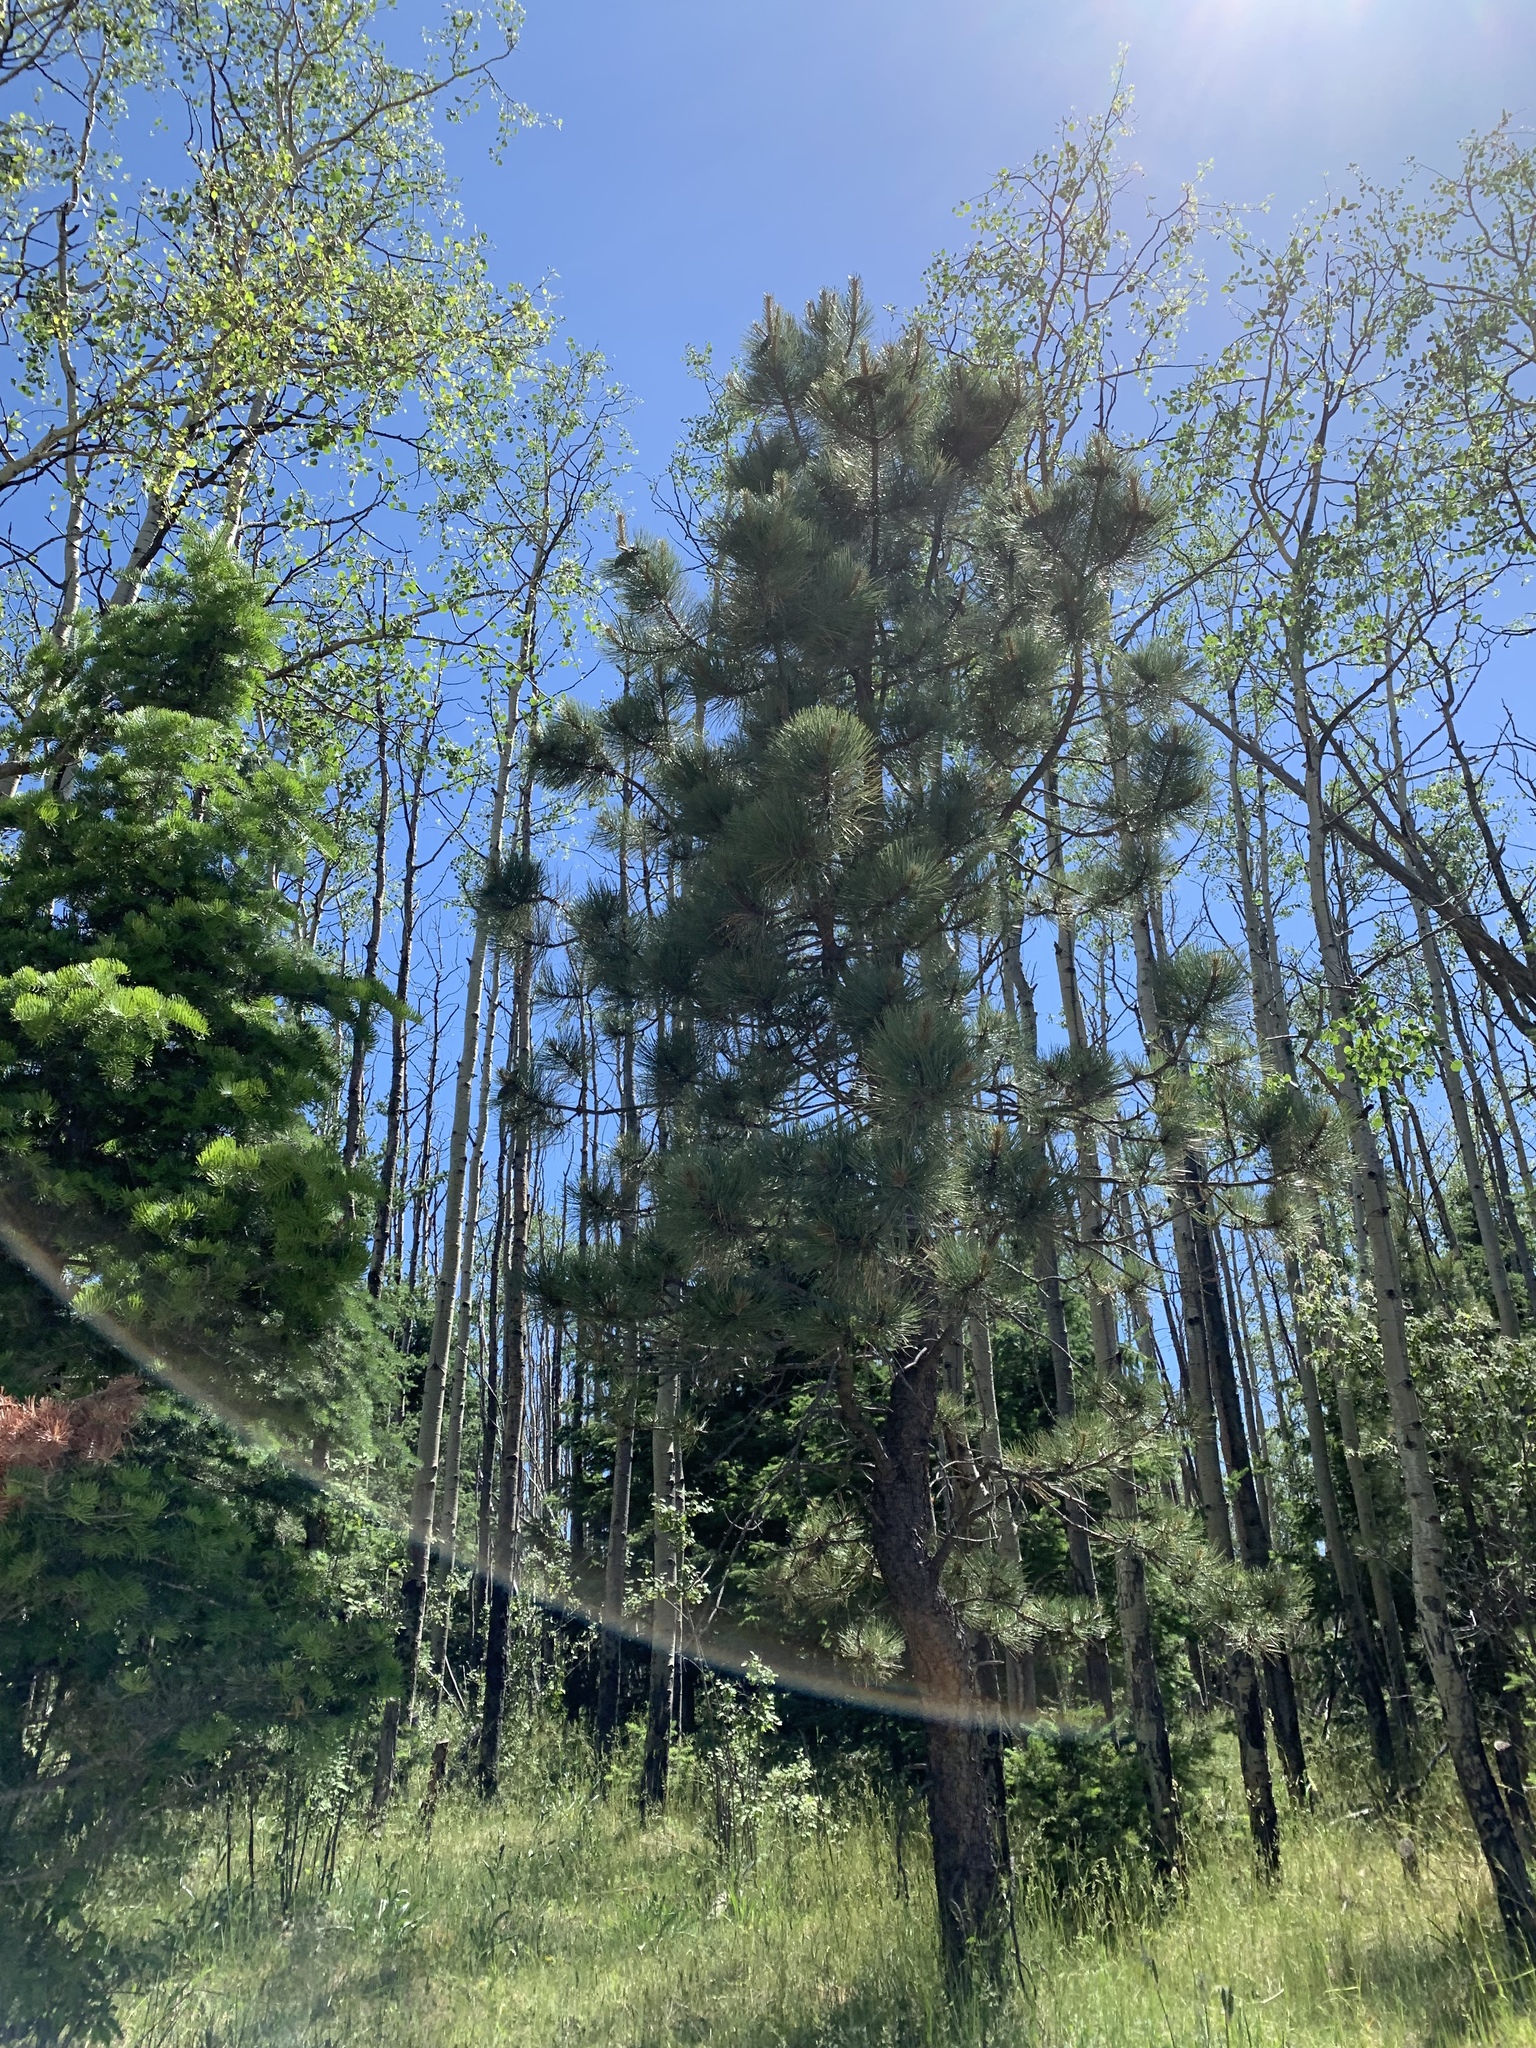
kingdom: Plantae
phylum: Tracheophyta
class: Pinopsida
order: Pinales
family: Pinaceae
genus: Pinus
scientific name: Pinus ponderosa
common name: Western yellow-pine
